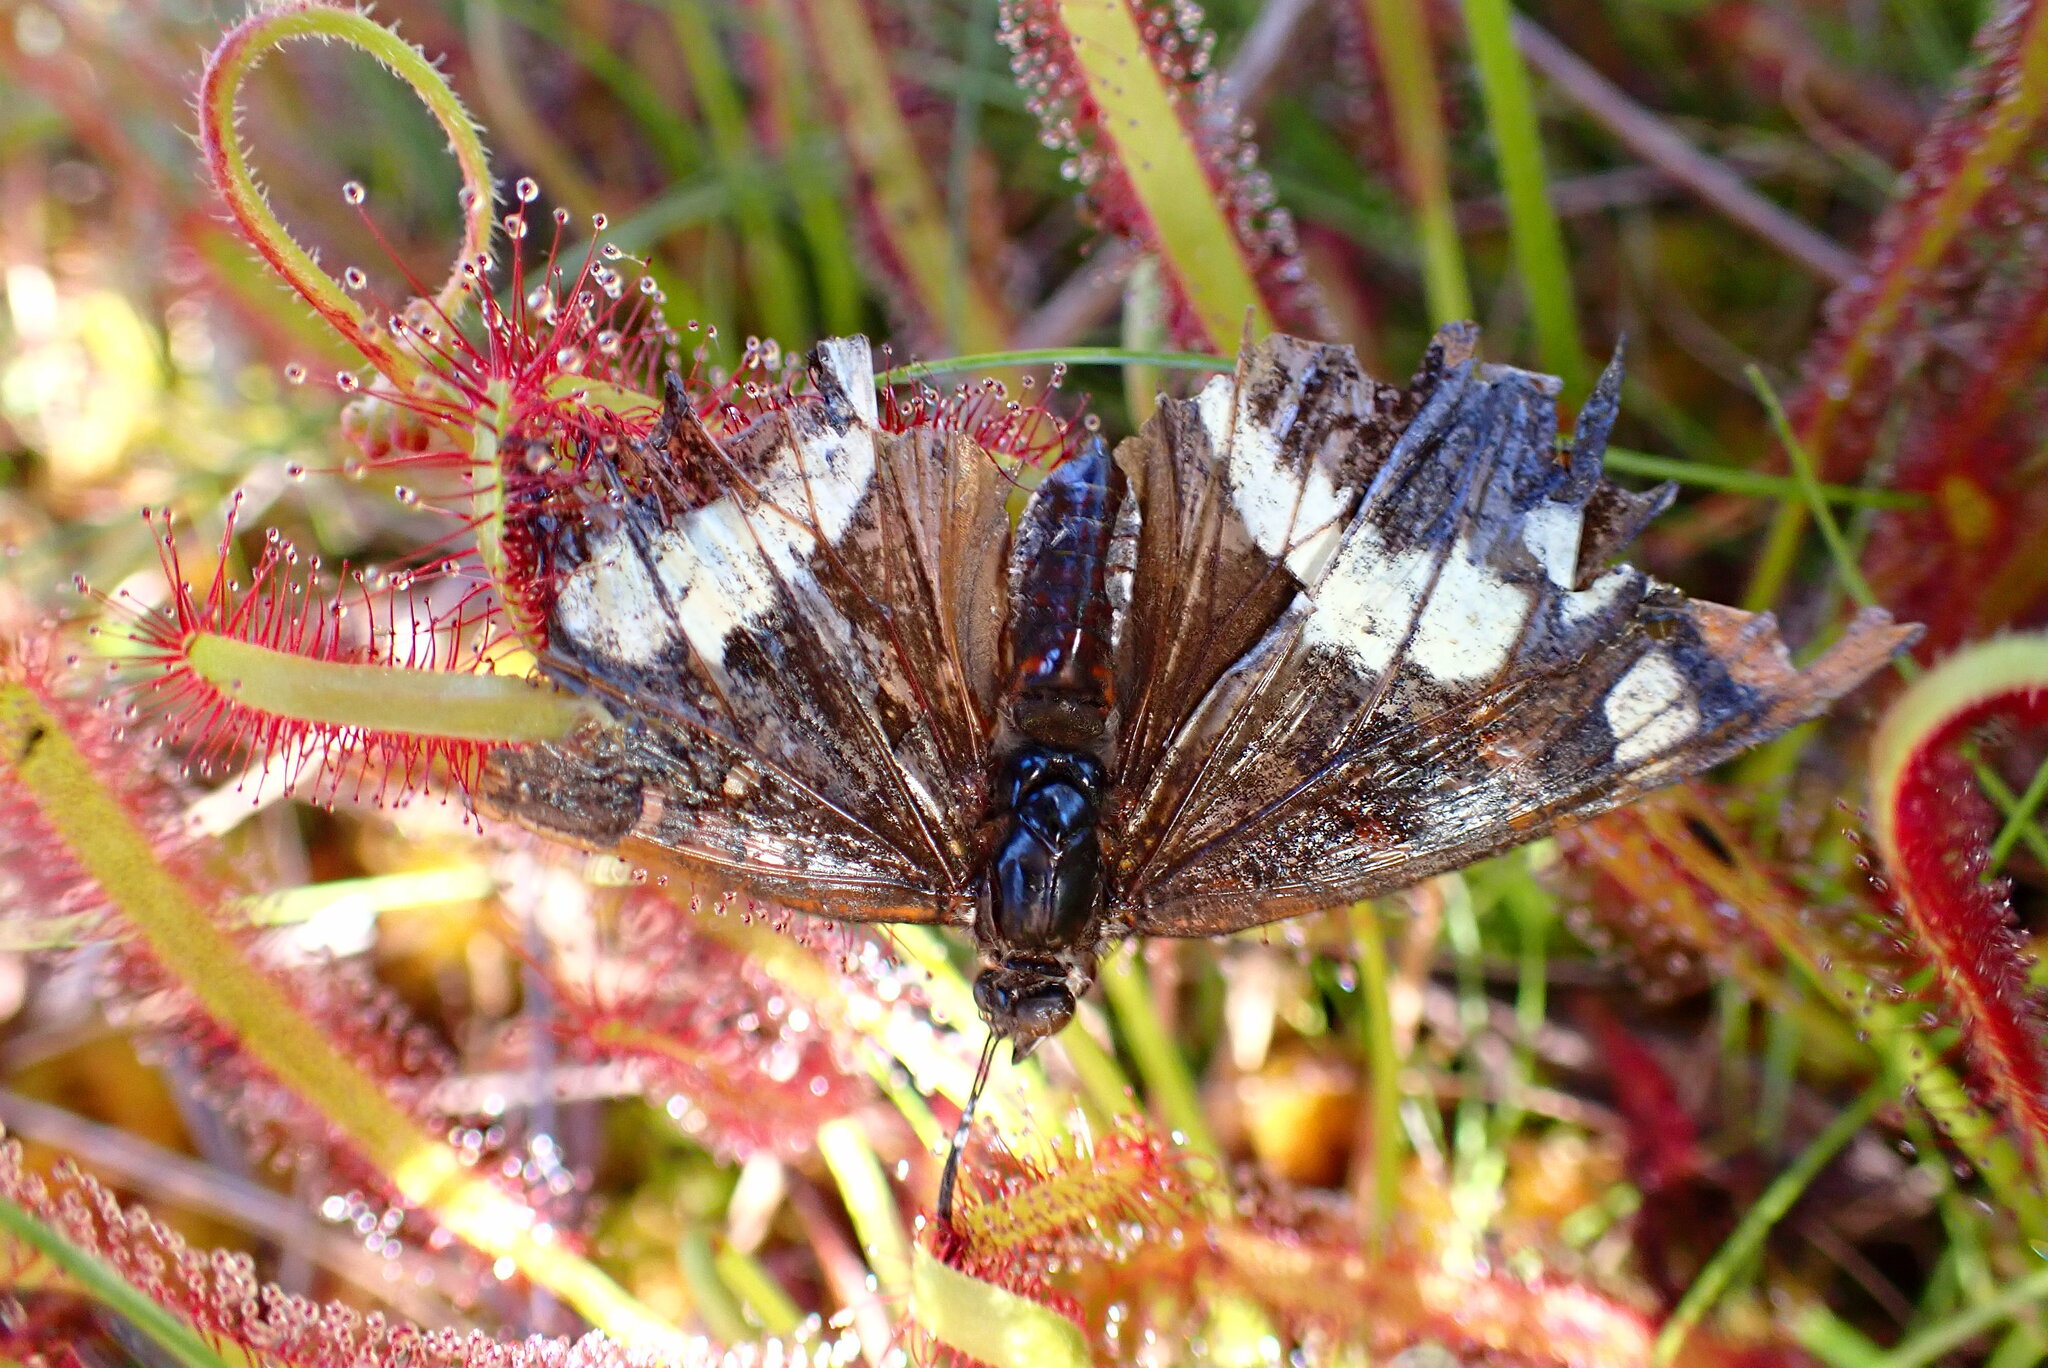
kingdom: Animalia
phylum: Arthropoda
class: Insecta
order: Lepidoptera
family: Nymphalidae
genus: Limenitis
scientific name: Limenitis bredowii
